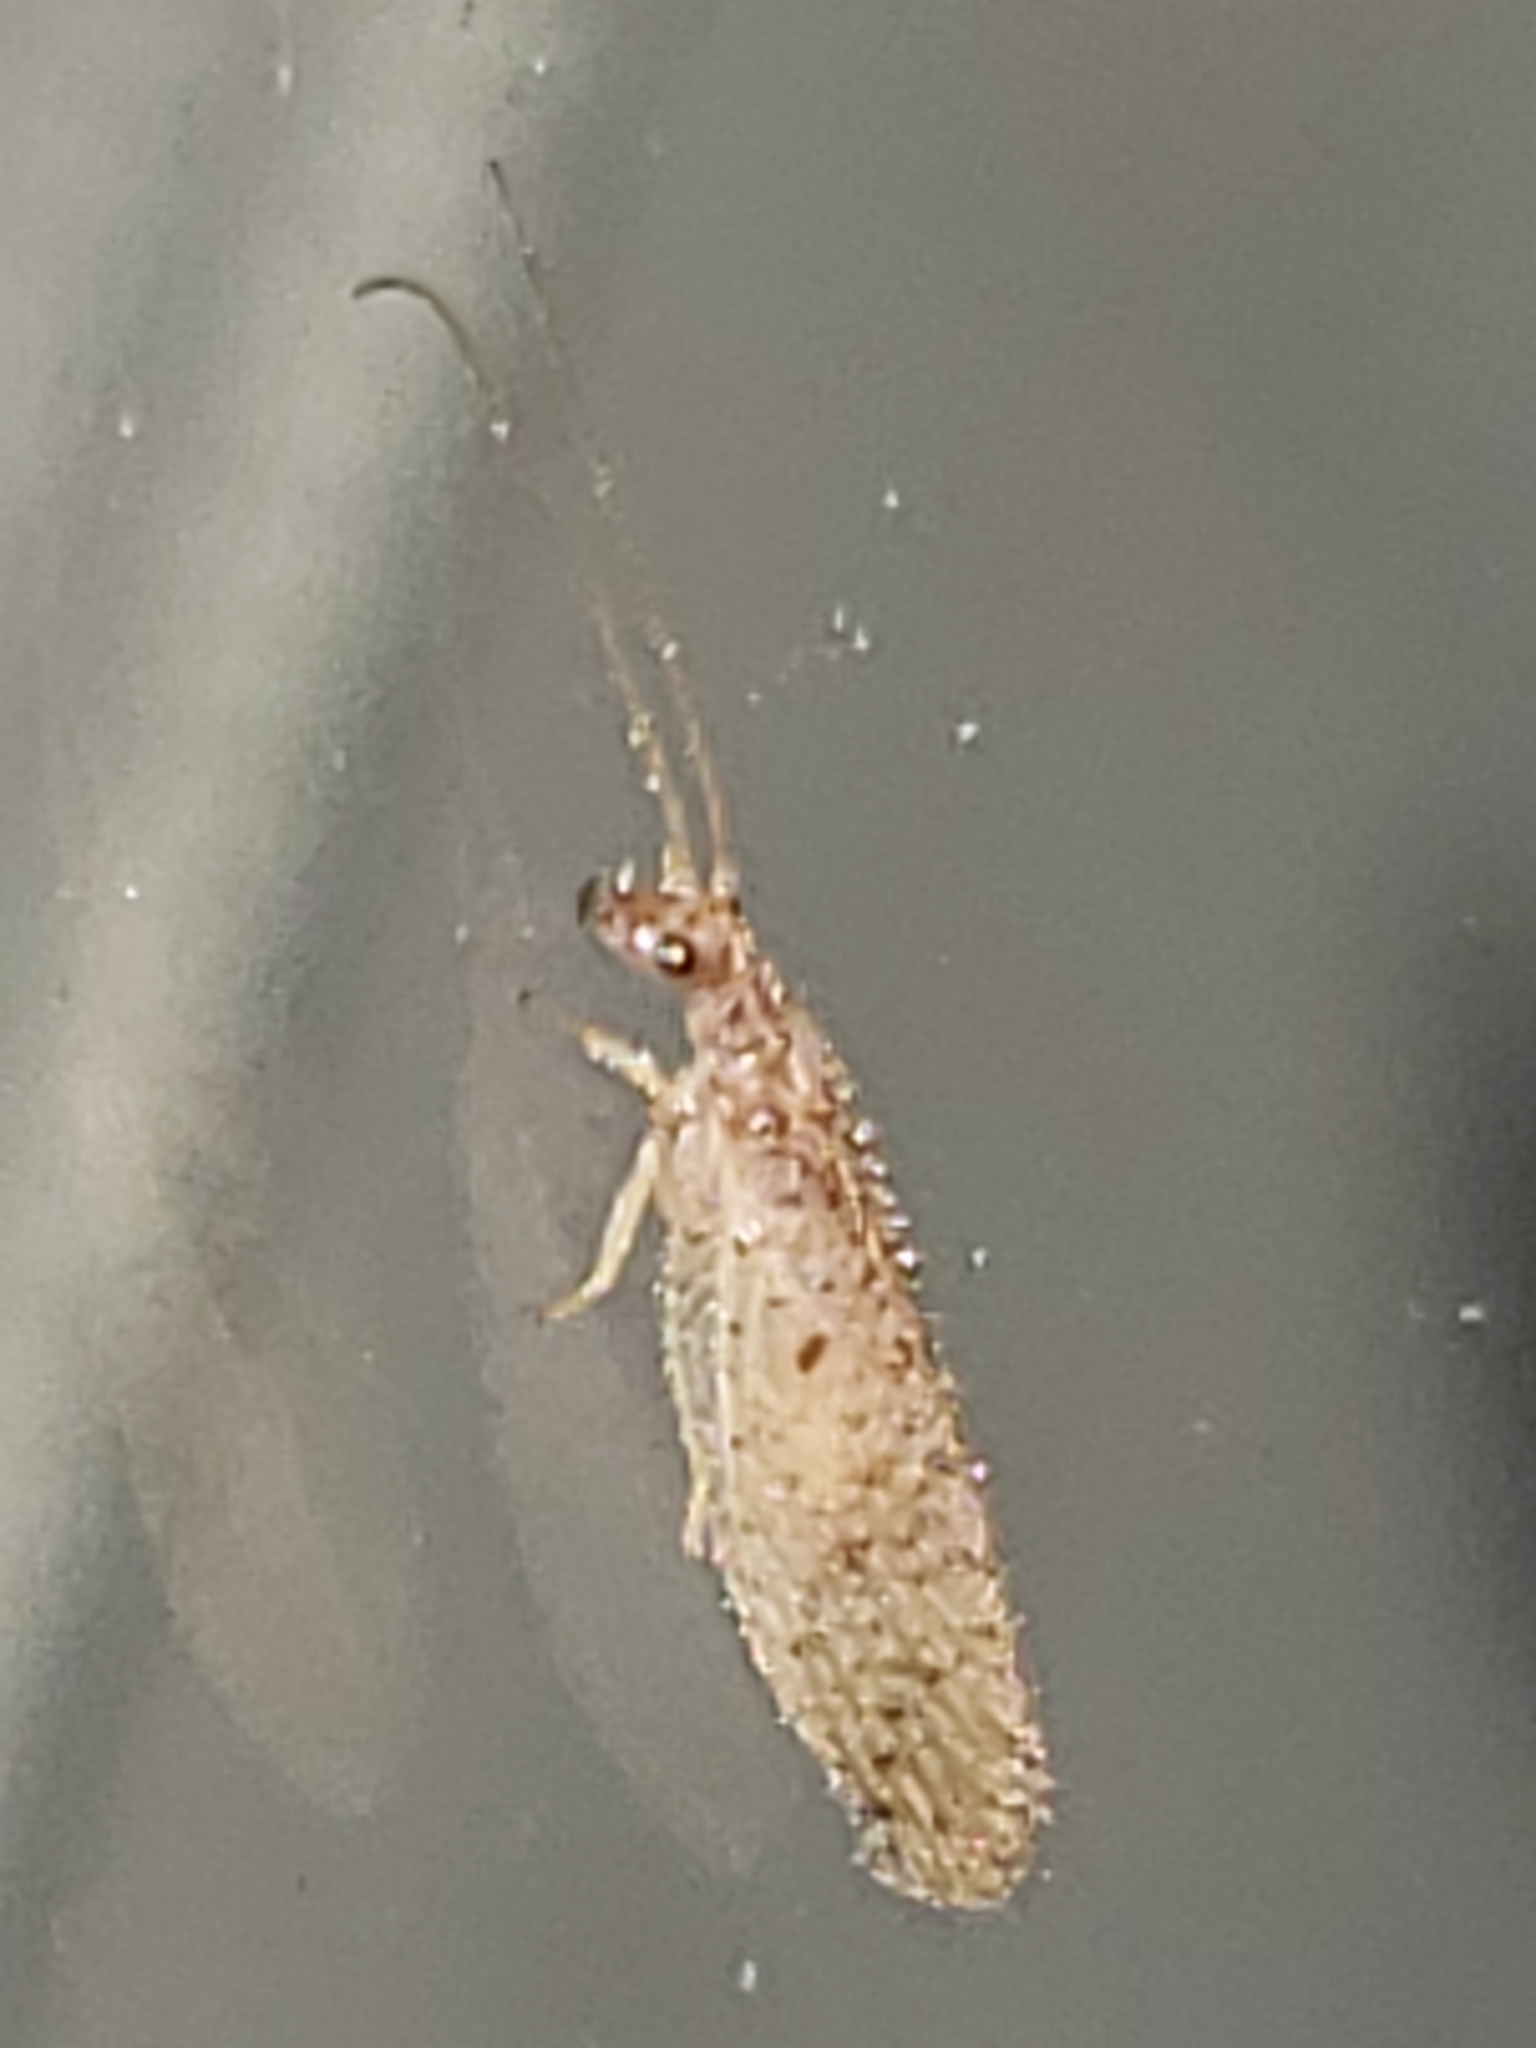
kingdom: Animalia
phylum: Arthropoda
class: Insecta
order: Neuroptera
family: Hemerobiidae
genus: Micromus
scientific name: Micromus subanticus
